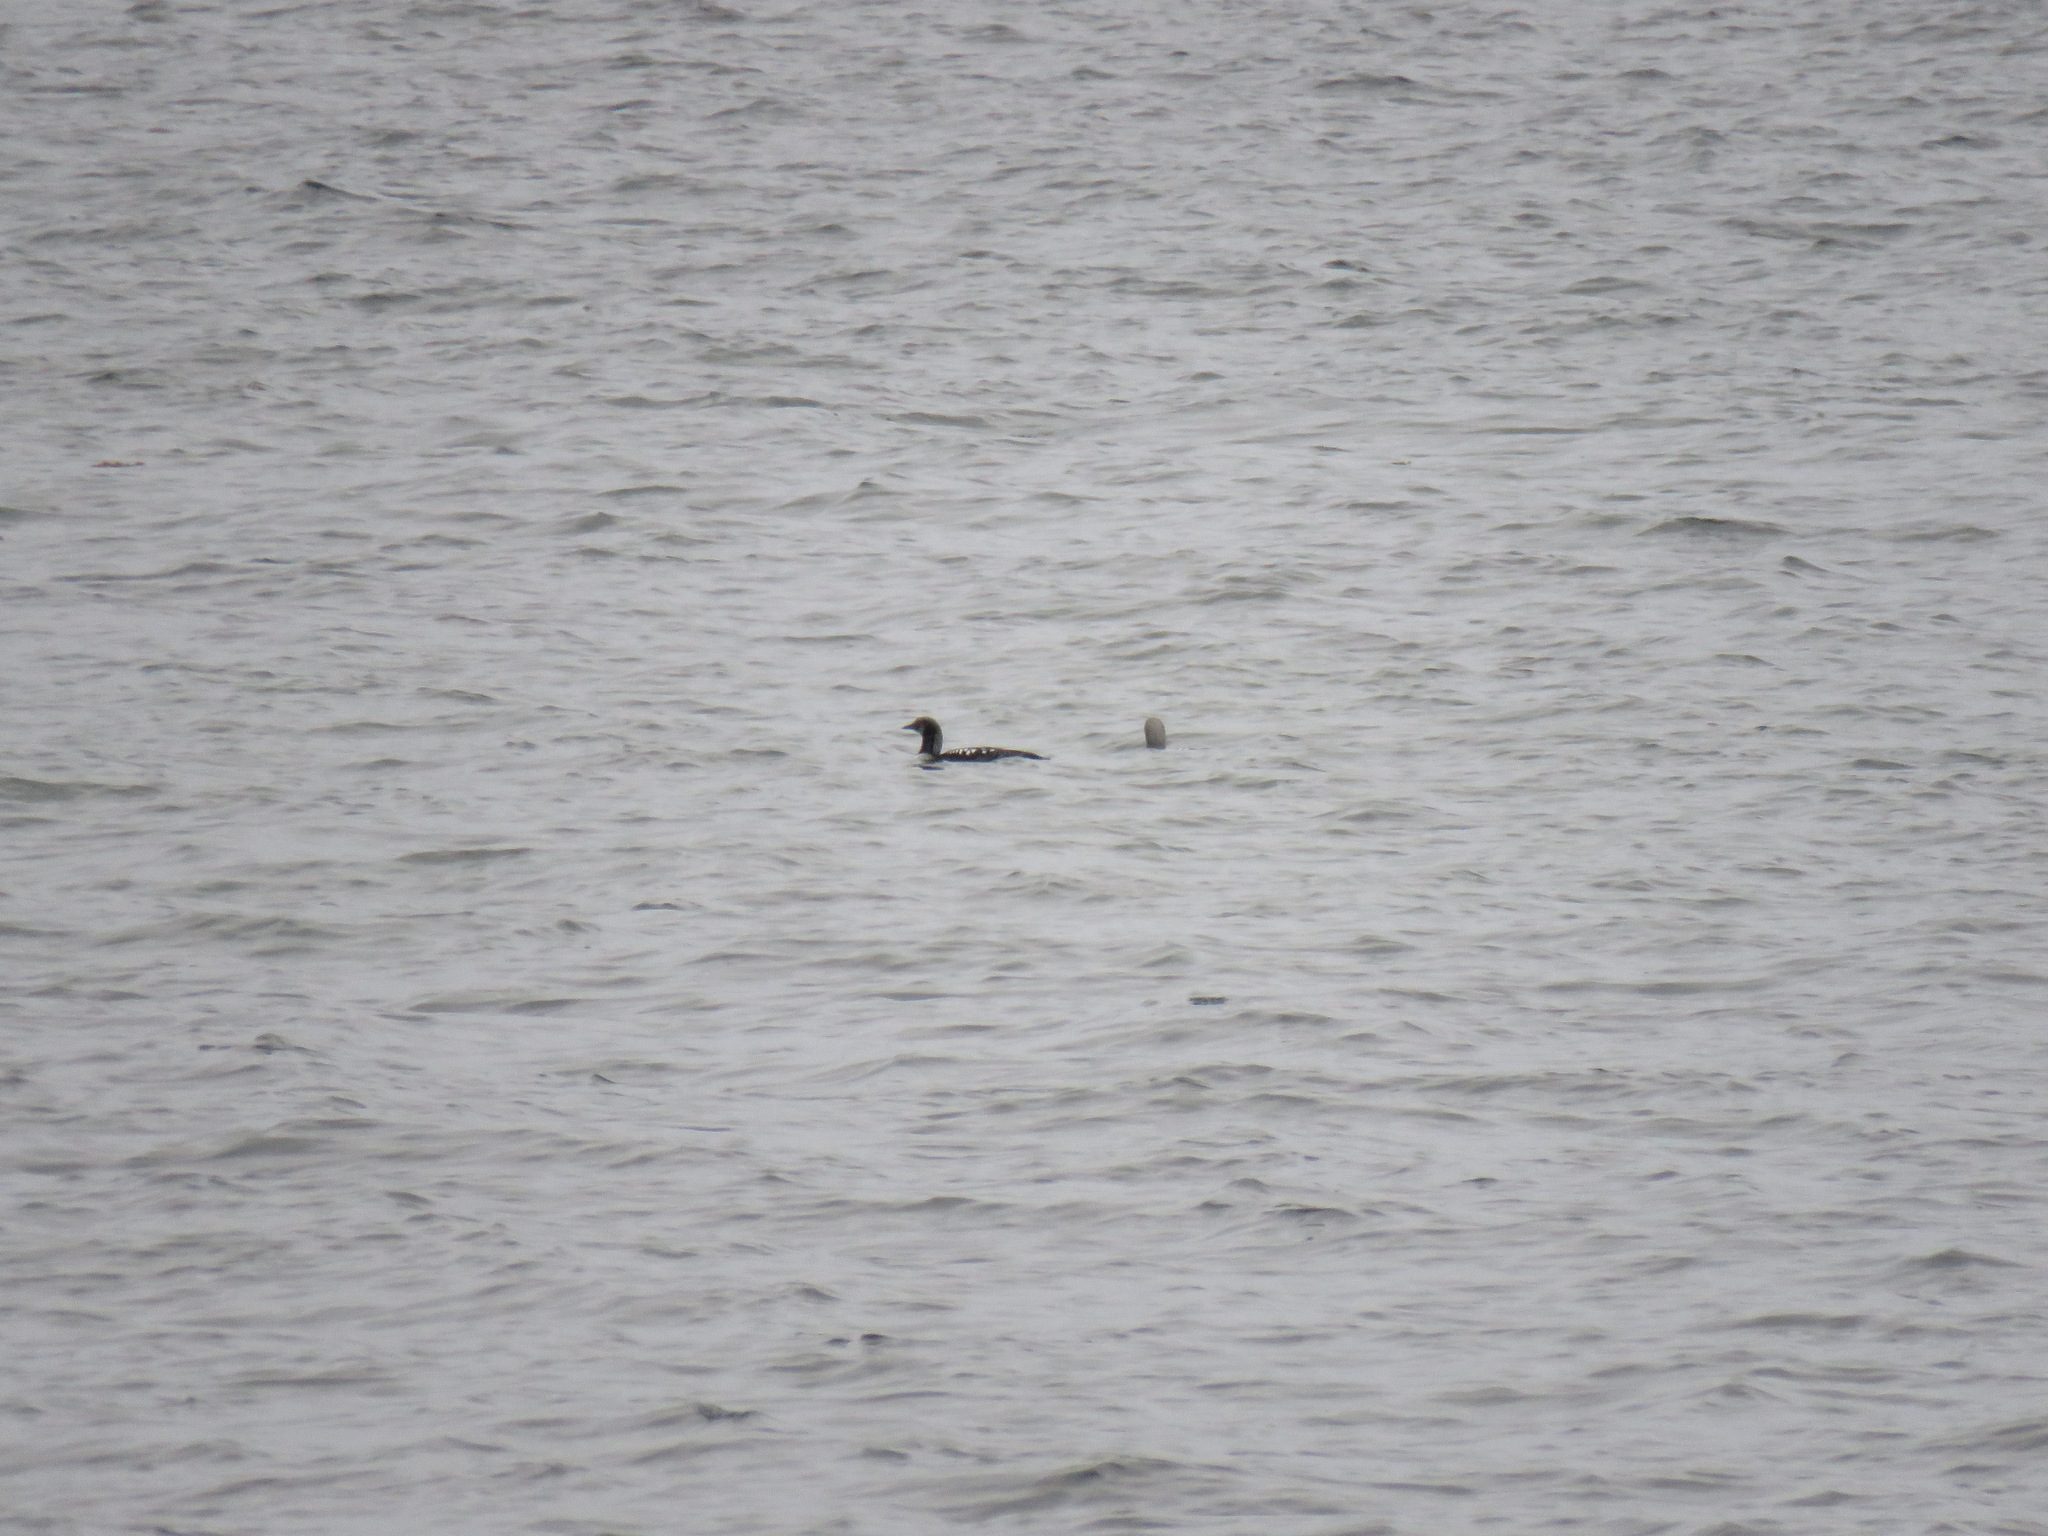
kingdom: Animalia
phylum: Chordata
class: Aves
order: Gaviiformes
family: Gaviidae
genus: Gavia
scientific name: Gavia pacifica
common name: Pacific loon
